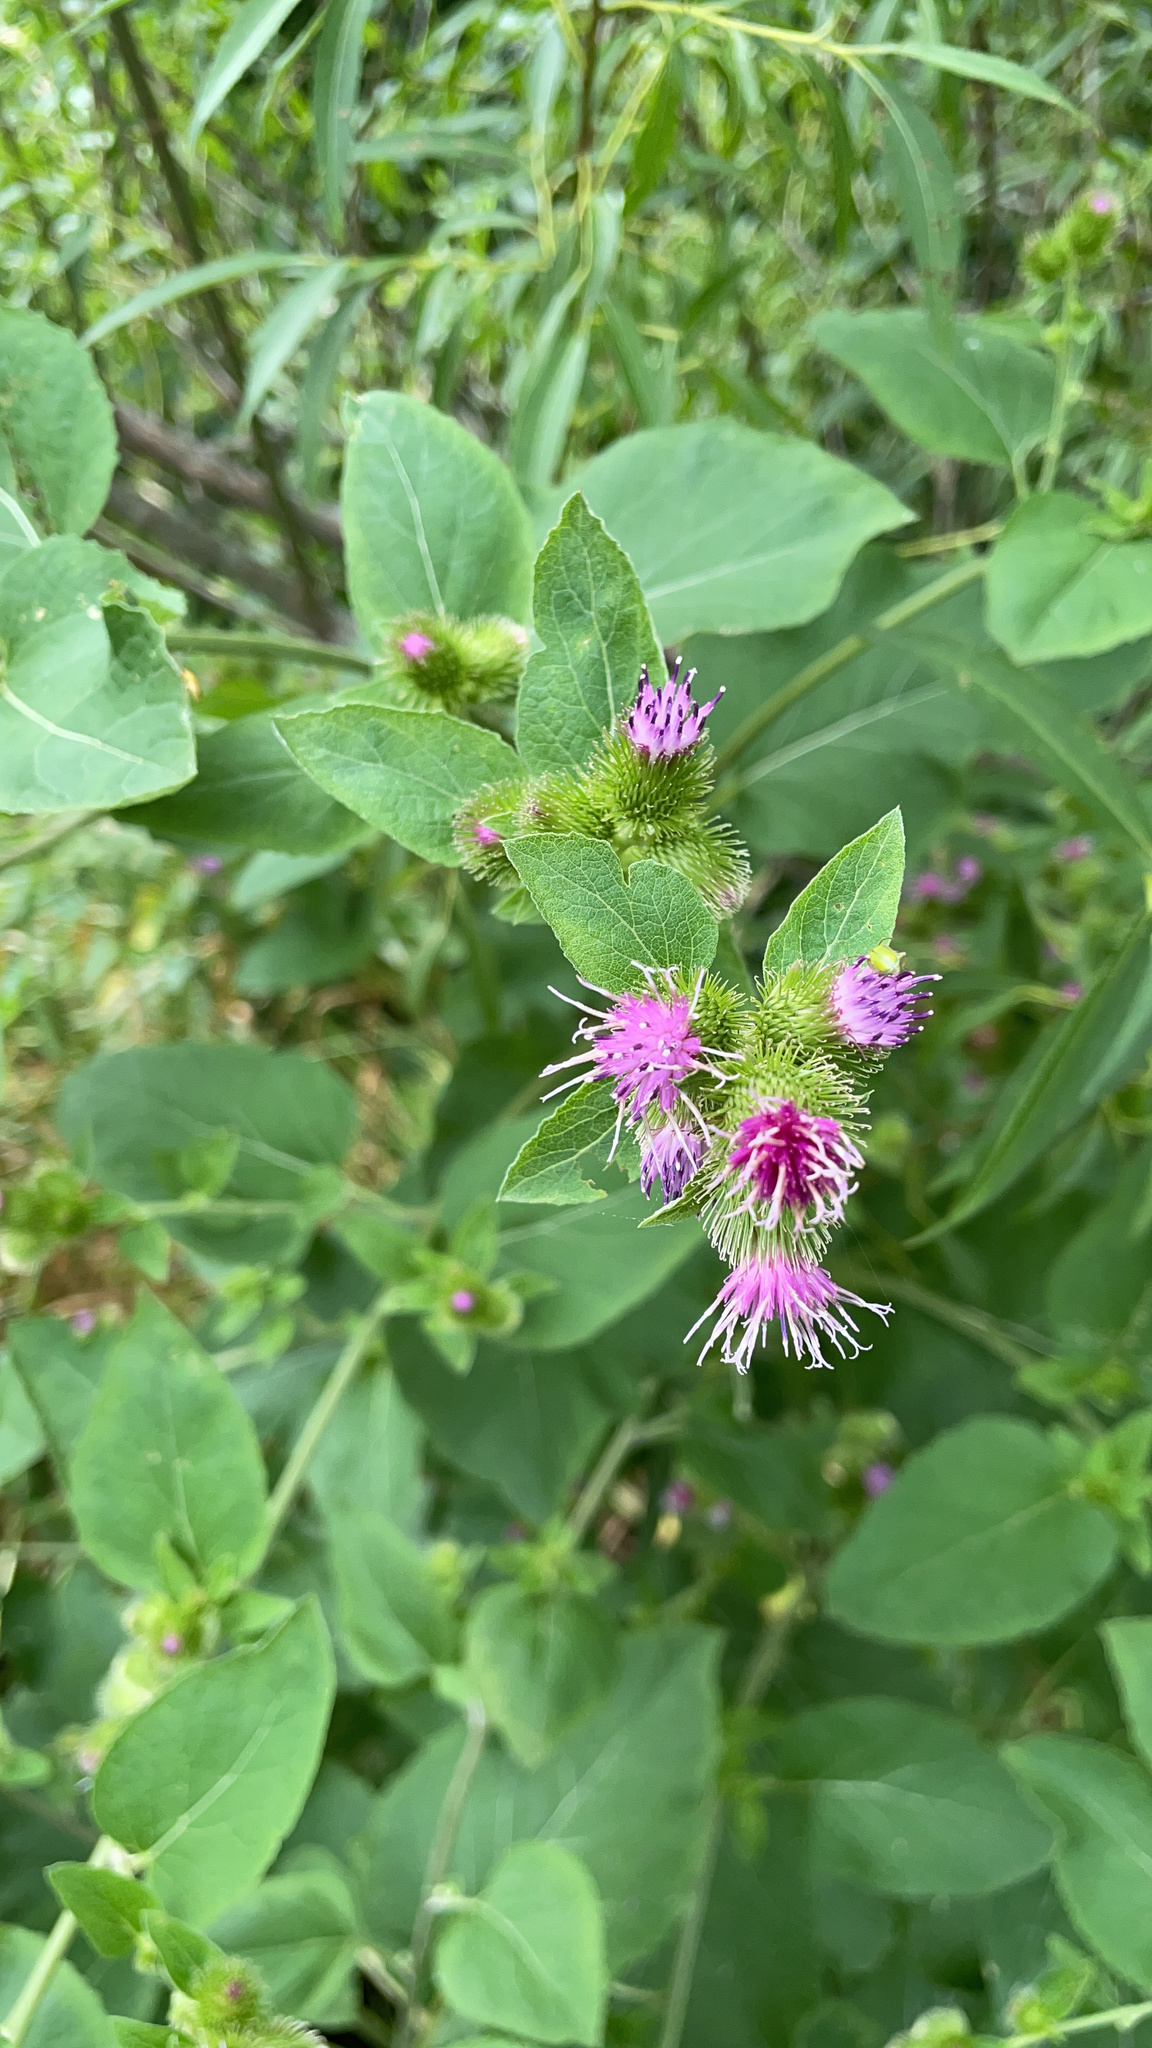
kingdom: Plantae
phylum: Tracheophyta
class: Magnoliopsida
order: Asterales
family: Asteraceae
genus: Arctium
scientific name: Arctium minus
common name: Lesser burdock
